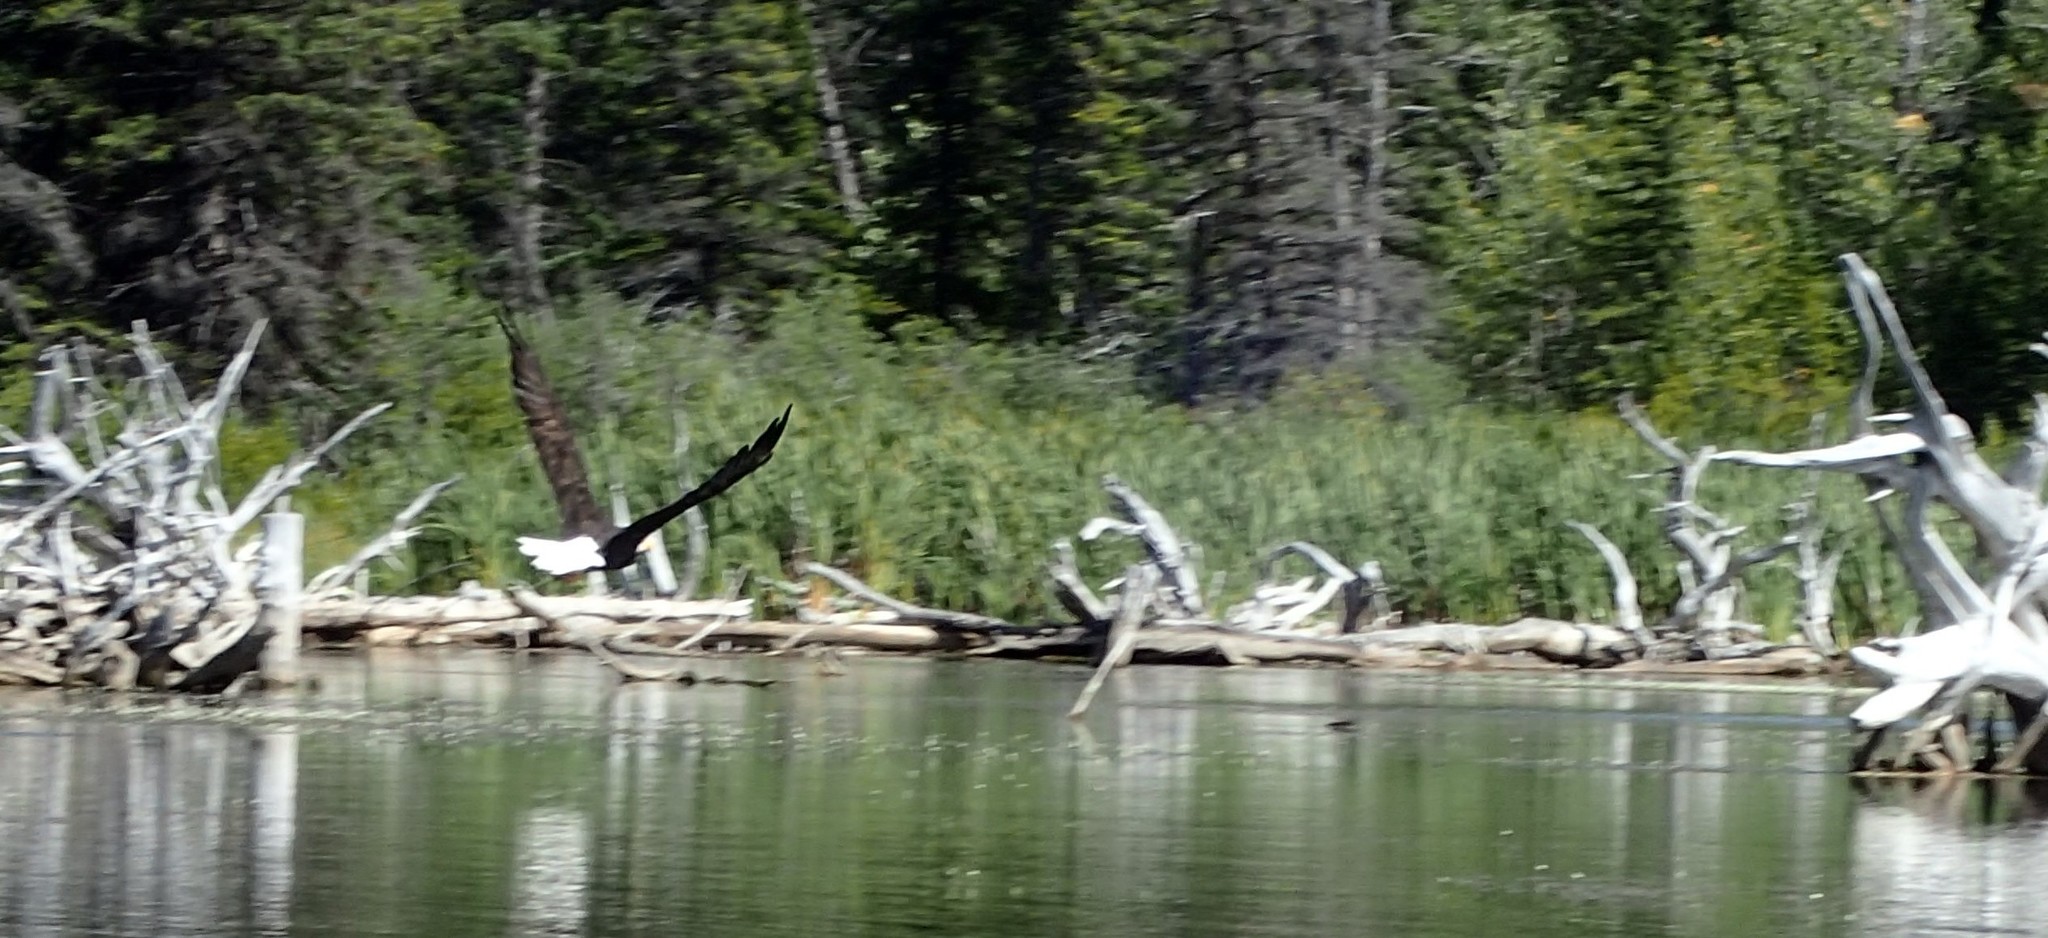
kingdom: Animalia
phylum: Chordata
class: Aves
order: Accipitriformes
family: Accipitridae
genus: Haliaeetus
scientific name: Haliaeetus leucocephalus
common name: Bald eagle
